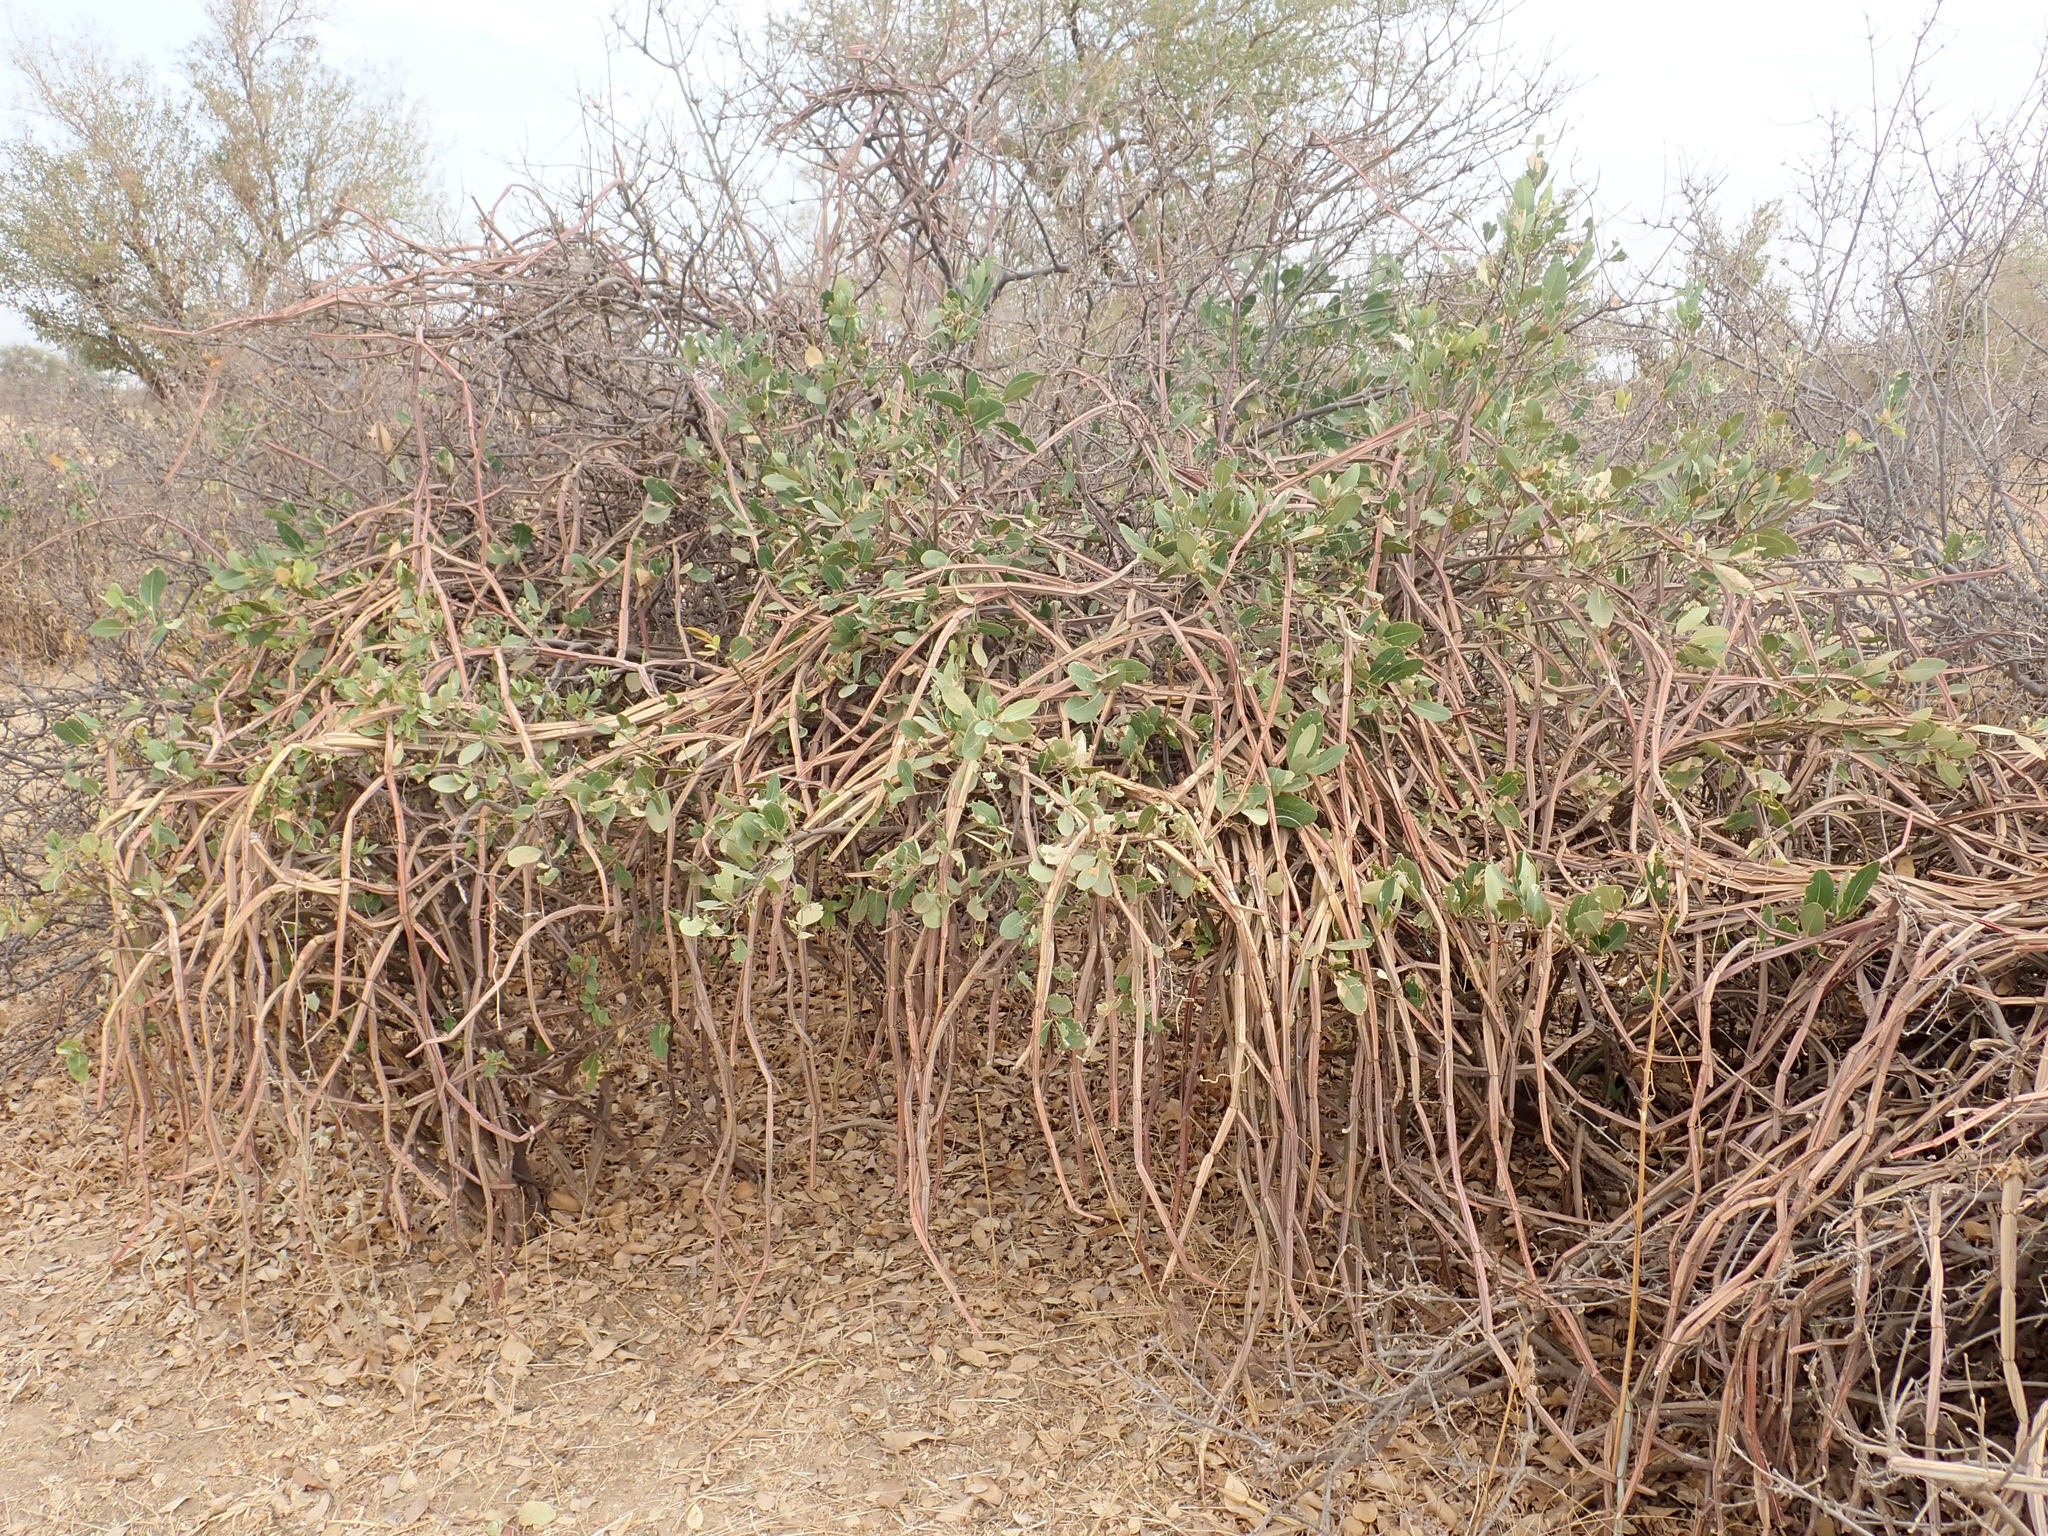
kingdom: Plantae
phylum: Tracheophyta
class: Magnoliopsida
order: Vitales
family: Vitaceae
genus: Cissus
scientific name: Cissus quadrangularis
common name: Veldt-grape
